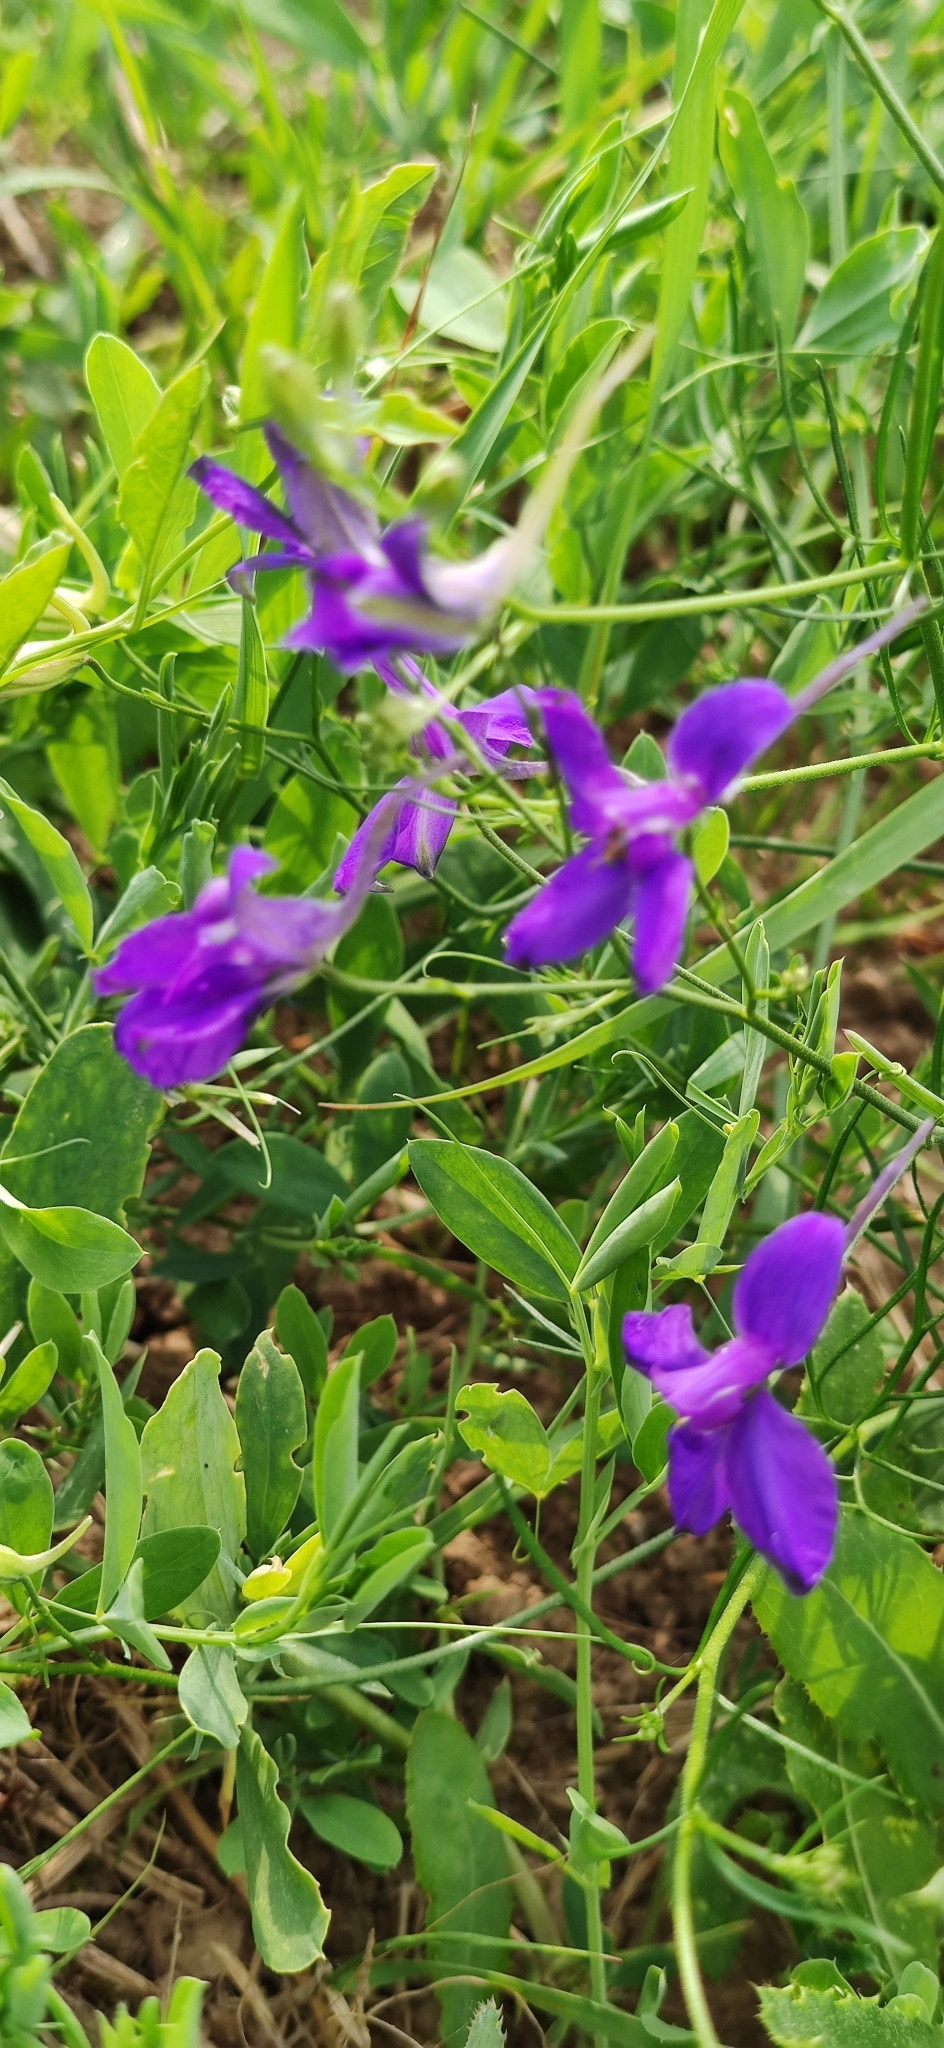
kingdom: Plantae
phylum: Tracheophyta
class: Magnoliopsida
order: Ranunculales
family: Ranunculaceae
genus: Delphinium
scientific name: Delphinium consolida
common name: Branching larkspur
